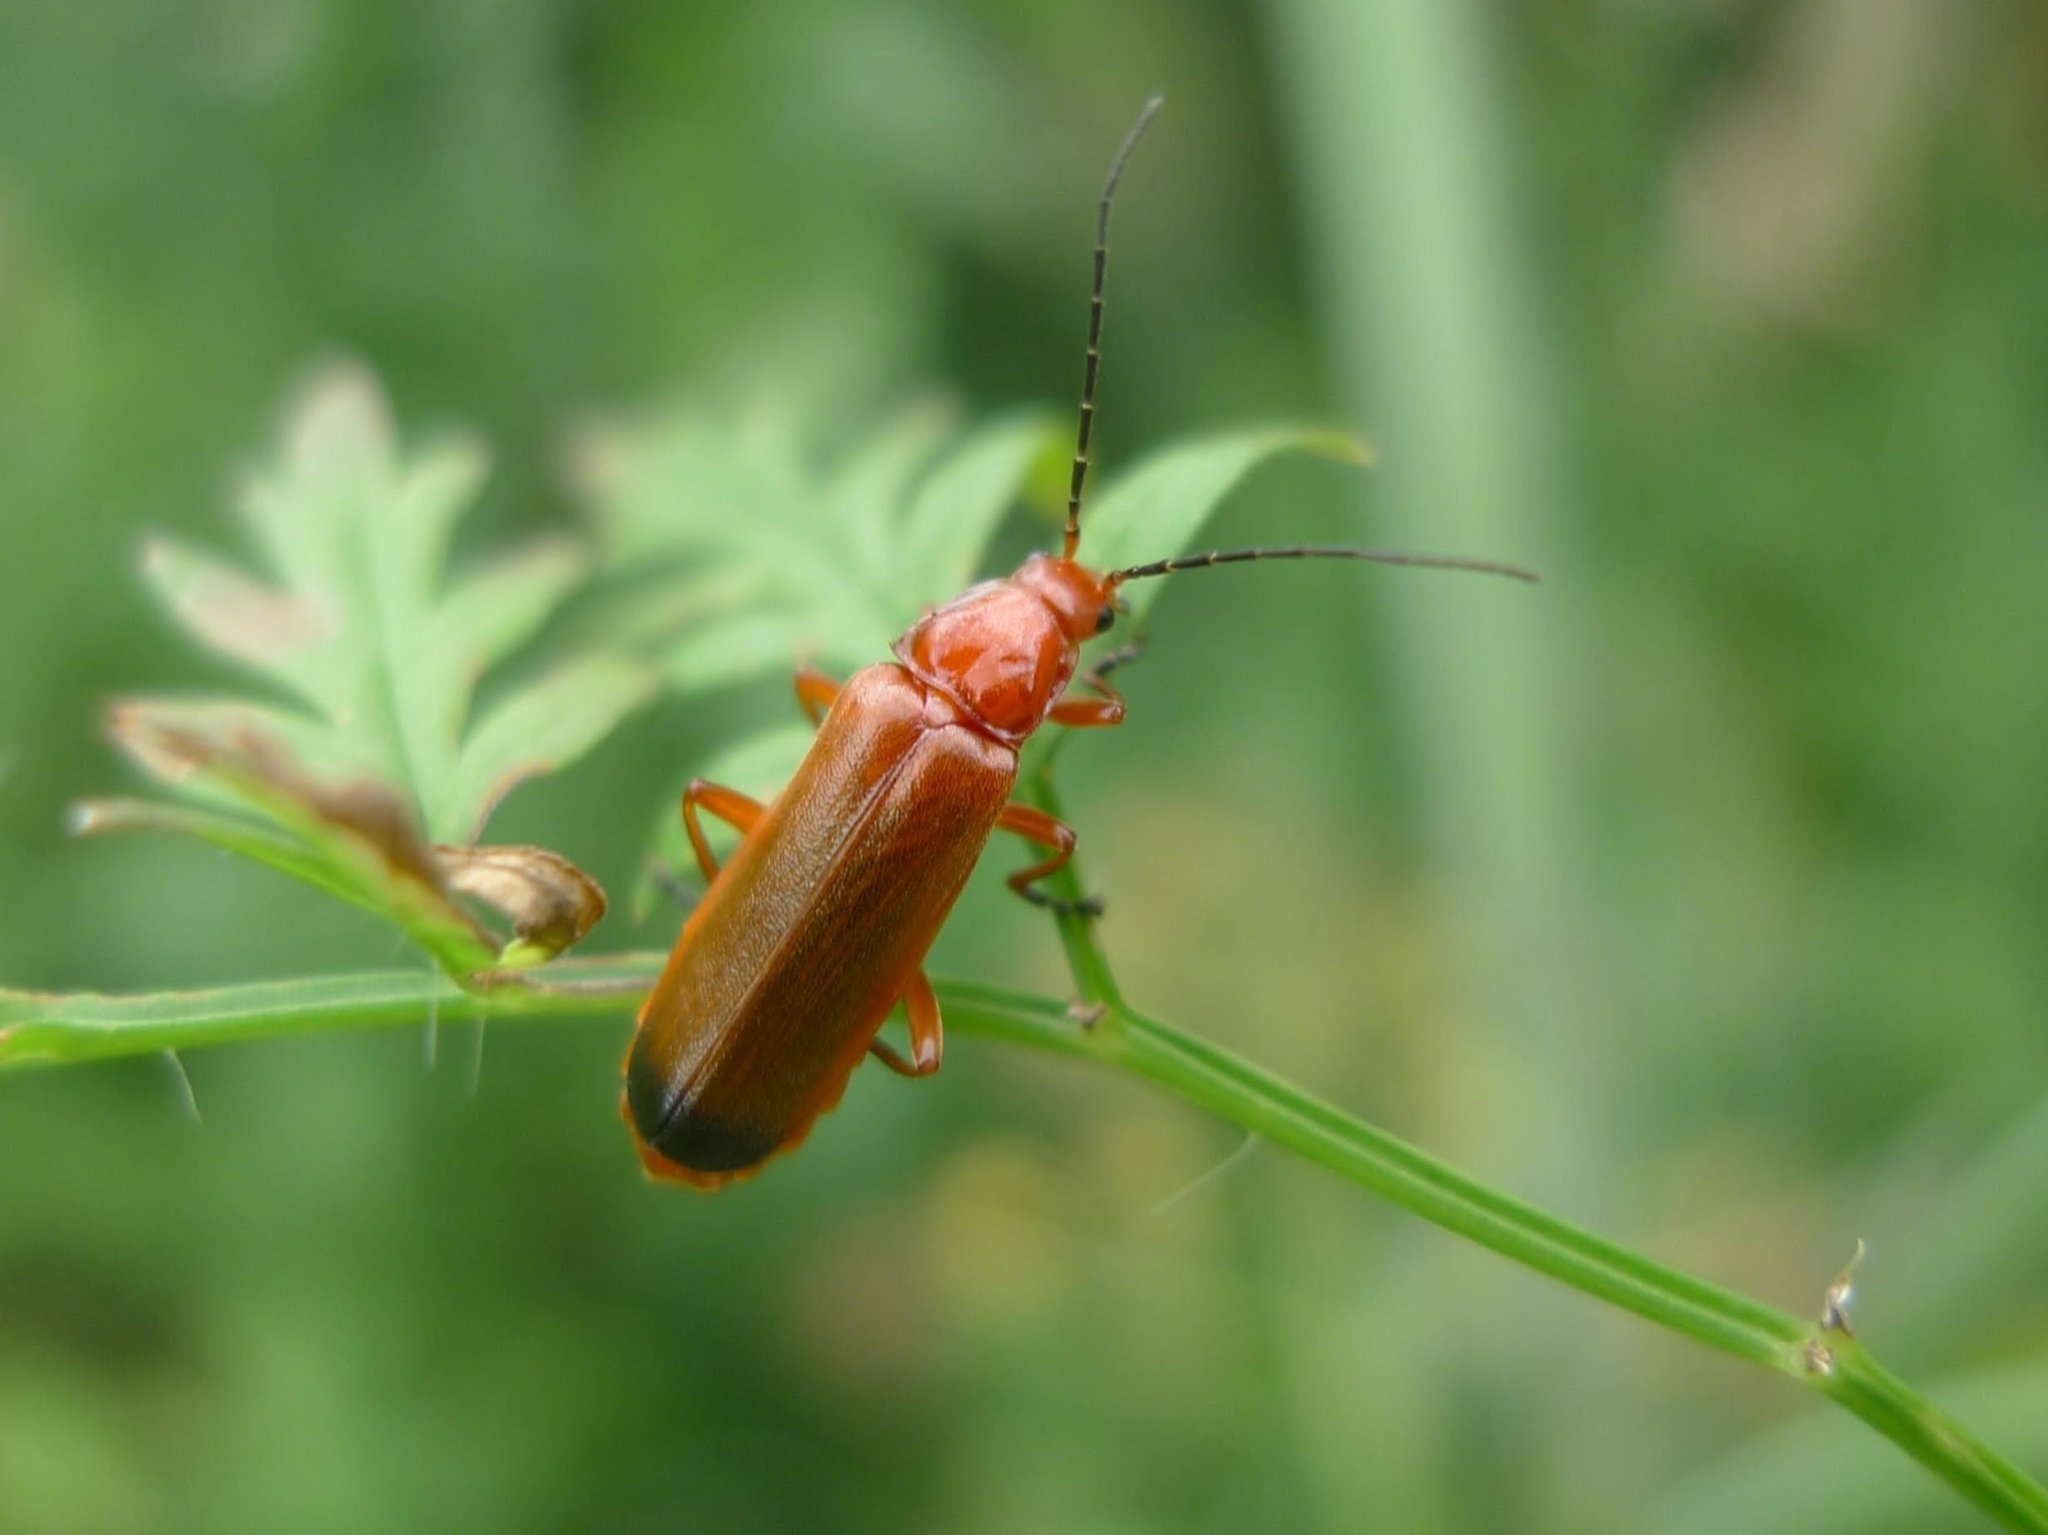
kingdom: Animalia
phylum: Arthropoda
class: Insecta
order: Coleoptera
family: Cantharidae
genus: Rhagonycha
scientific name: Rhagonycha fulva
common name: Common red soldier beetle
